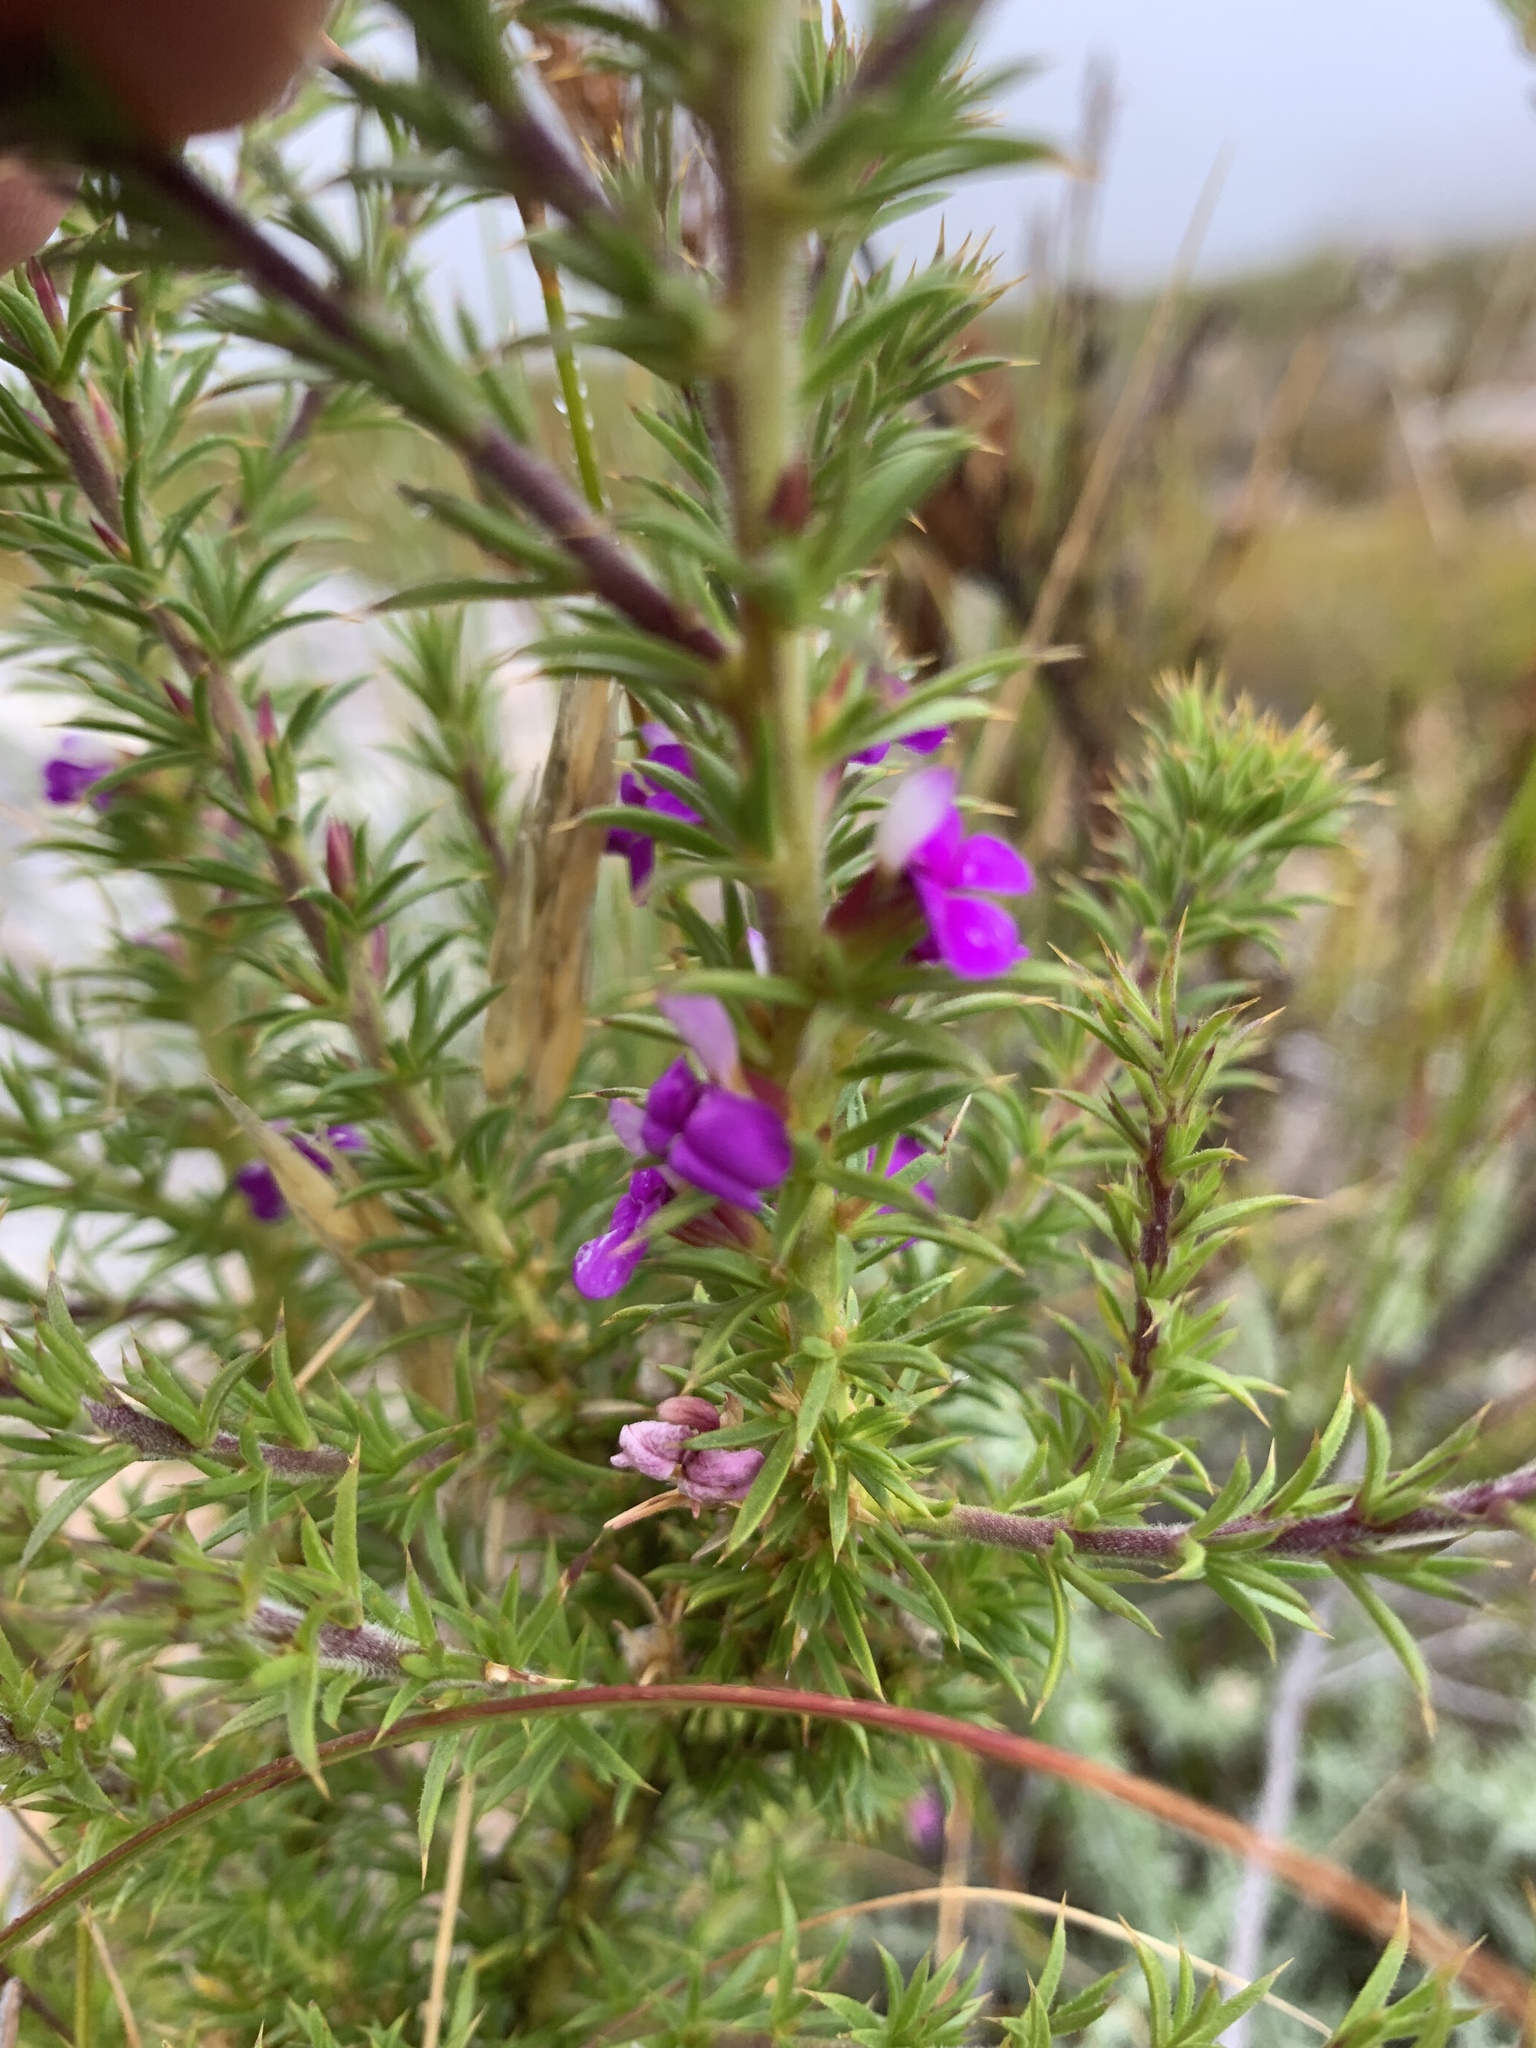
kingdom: Plantae
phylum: Tracheophyta
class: Magnoliopsida
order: Fabales
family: Polygalaceae
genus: Muraltia
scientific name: Muraltia heisteria
